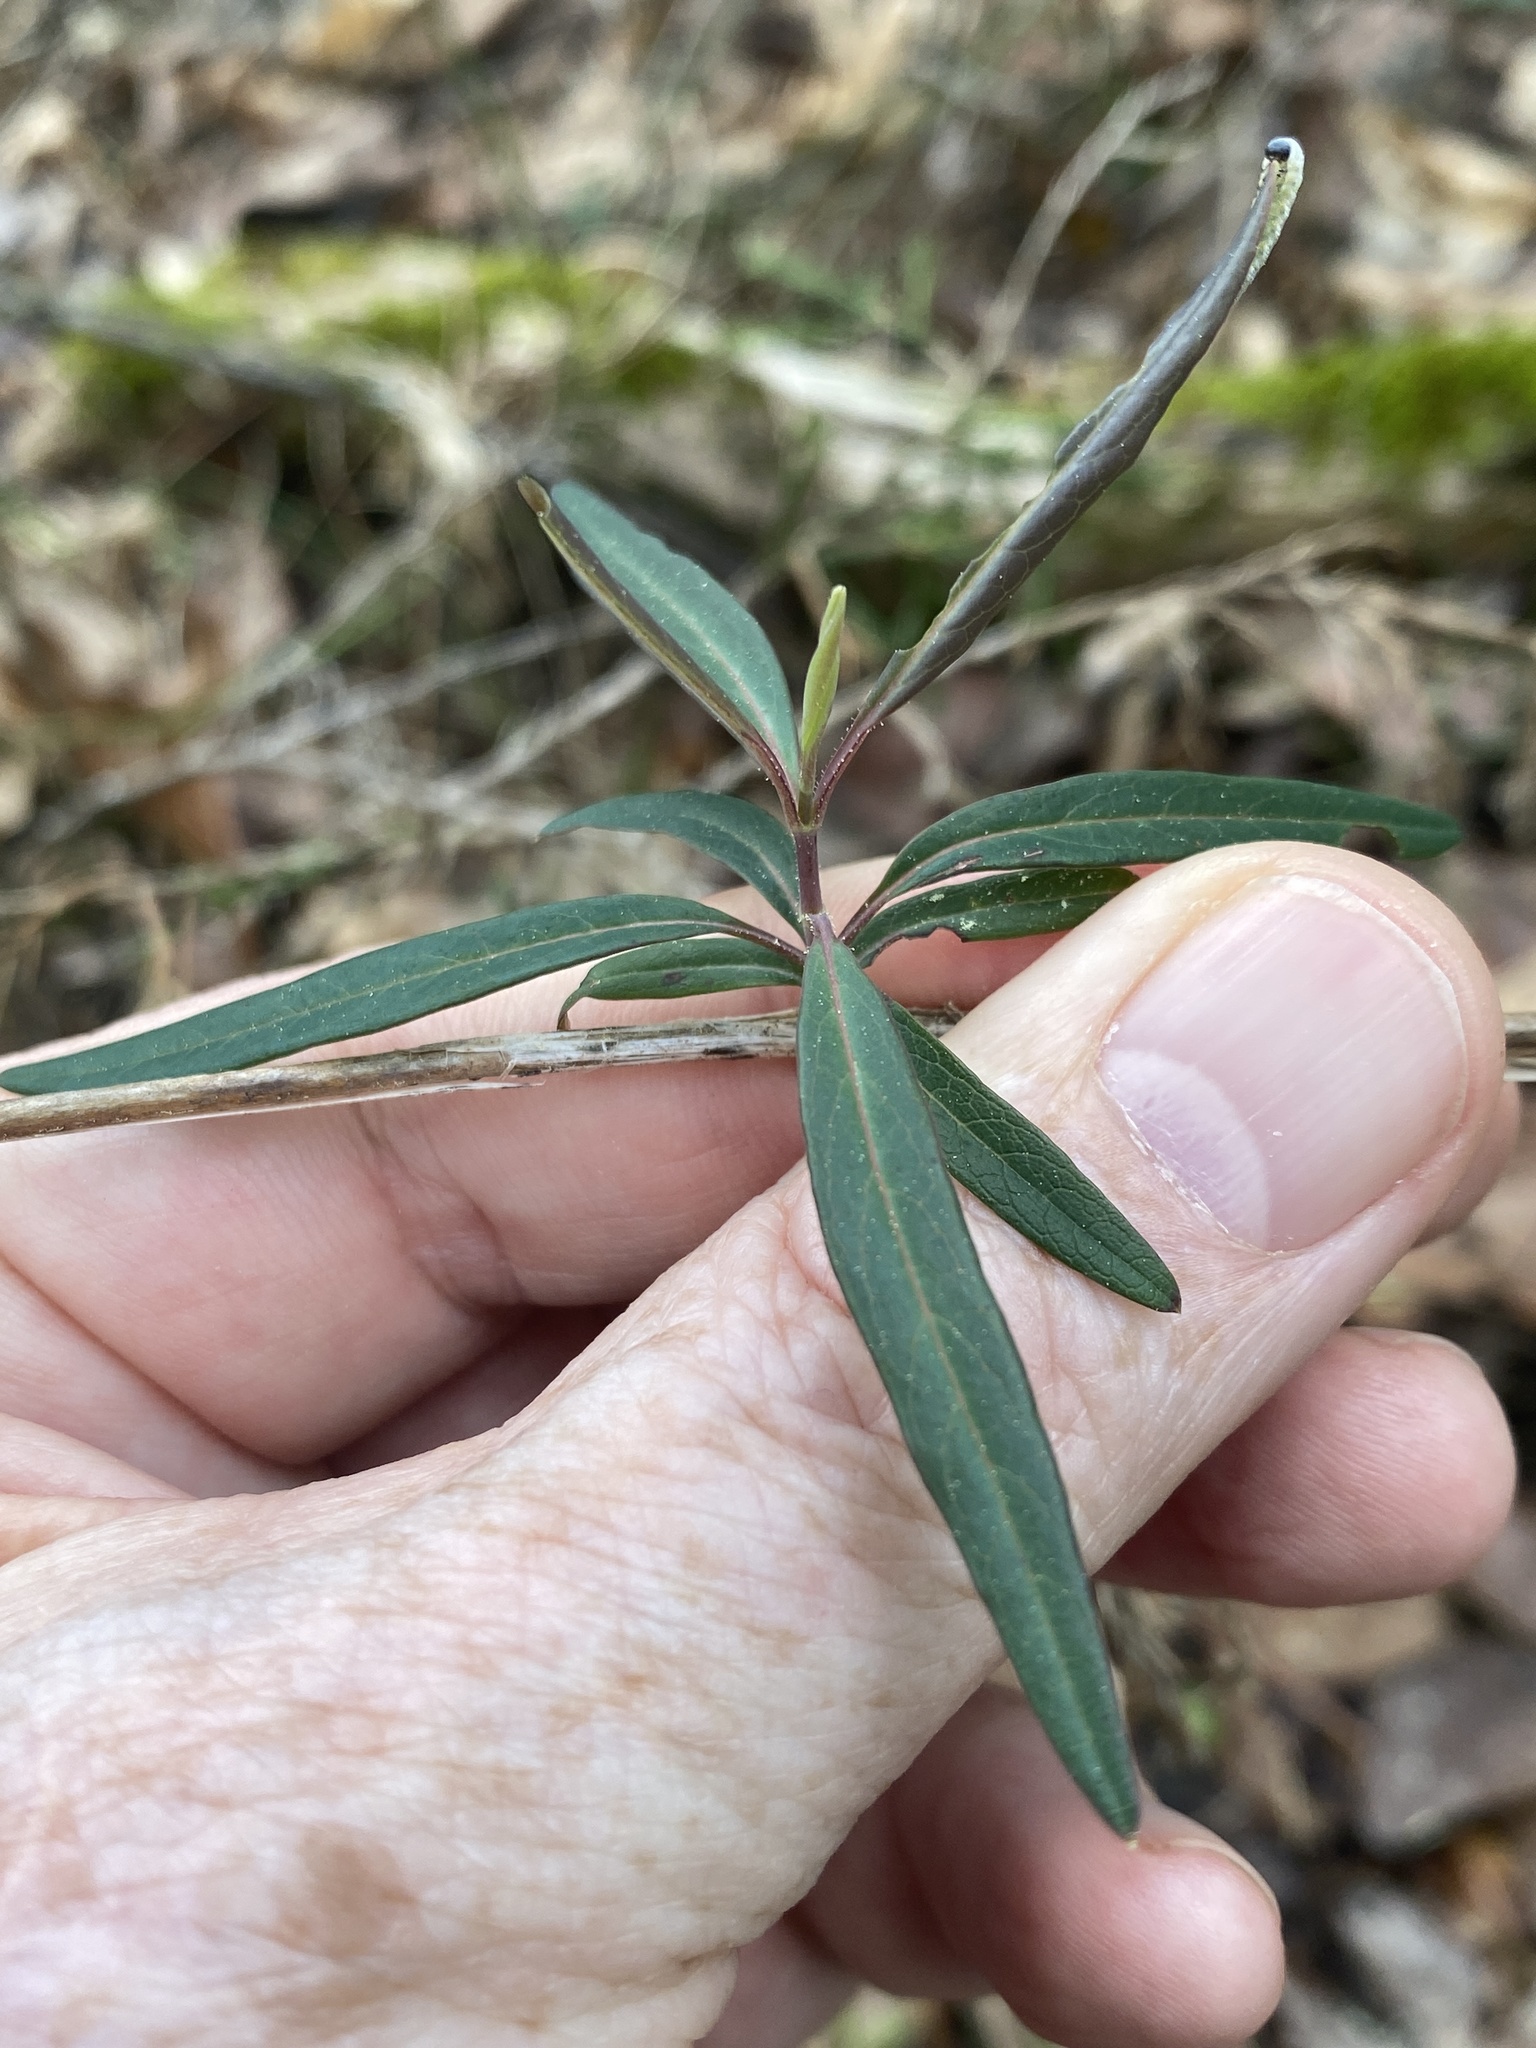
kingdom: Plantae
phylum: Tracheophyta
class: Magnoliopsida
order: Dipsacales
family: Caprifoliaceae
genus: Lonicera
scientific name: Lonicera sempervirens
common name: Coral honeysuckle
